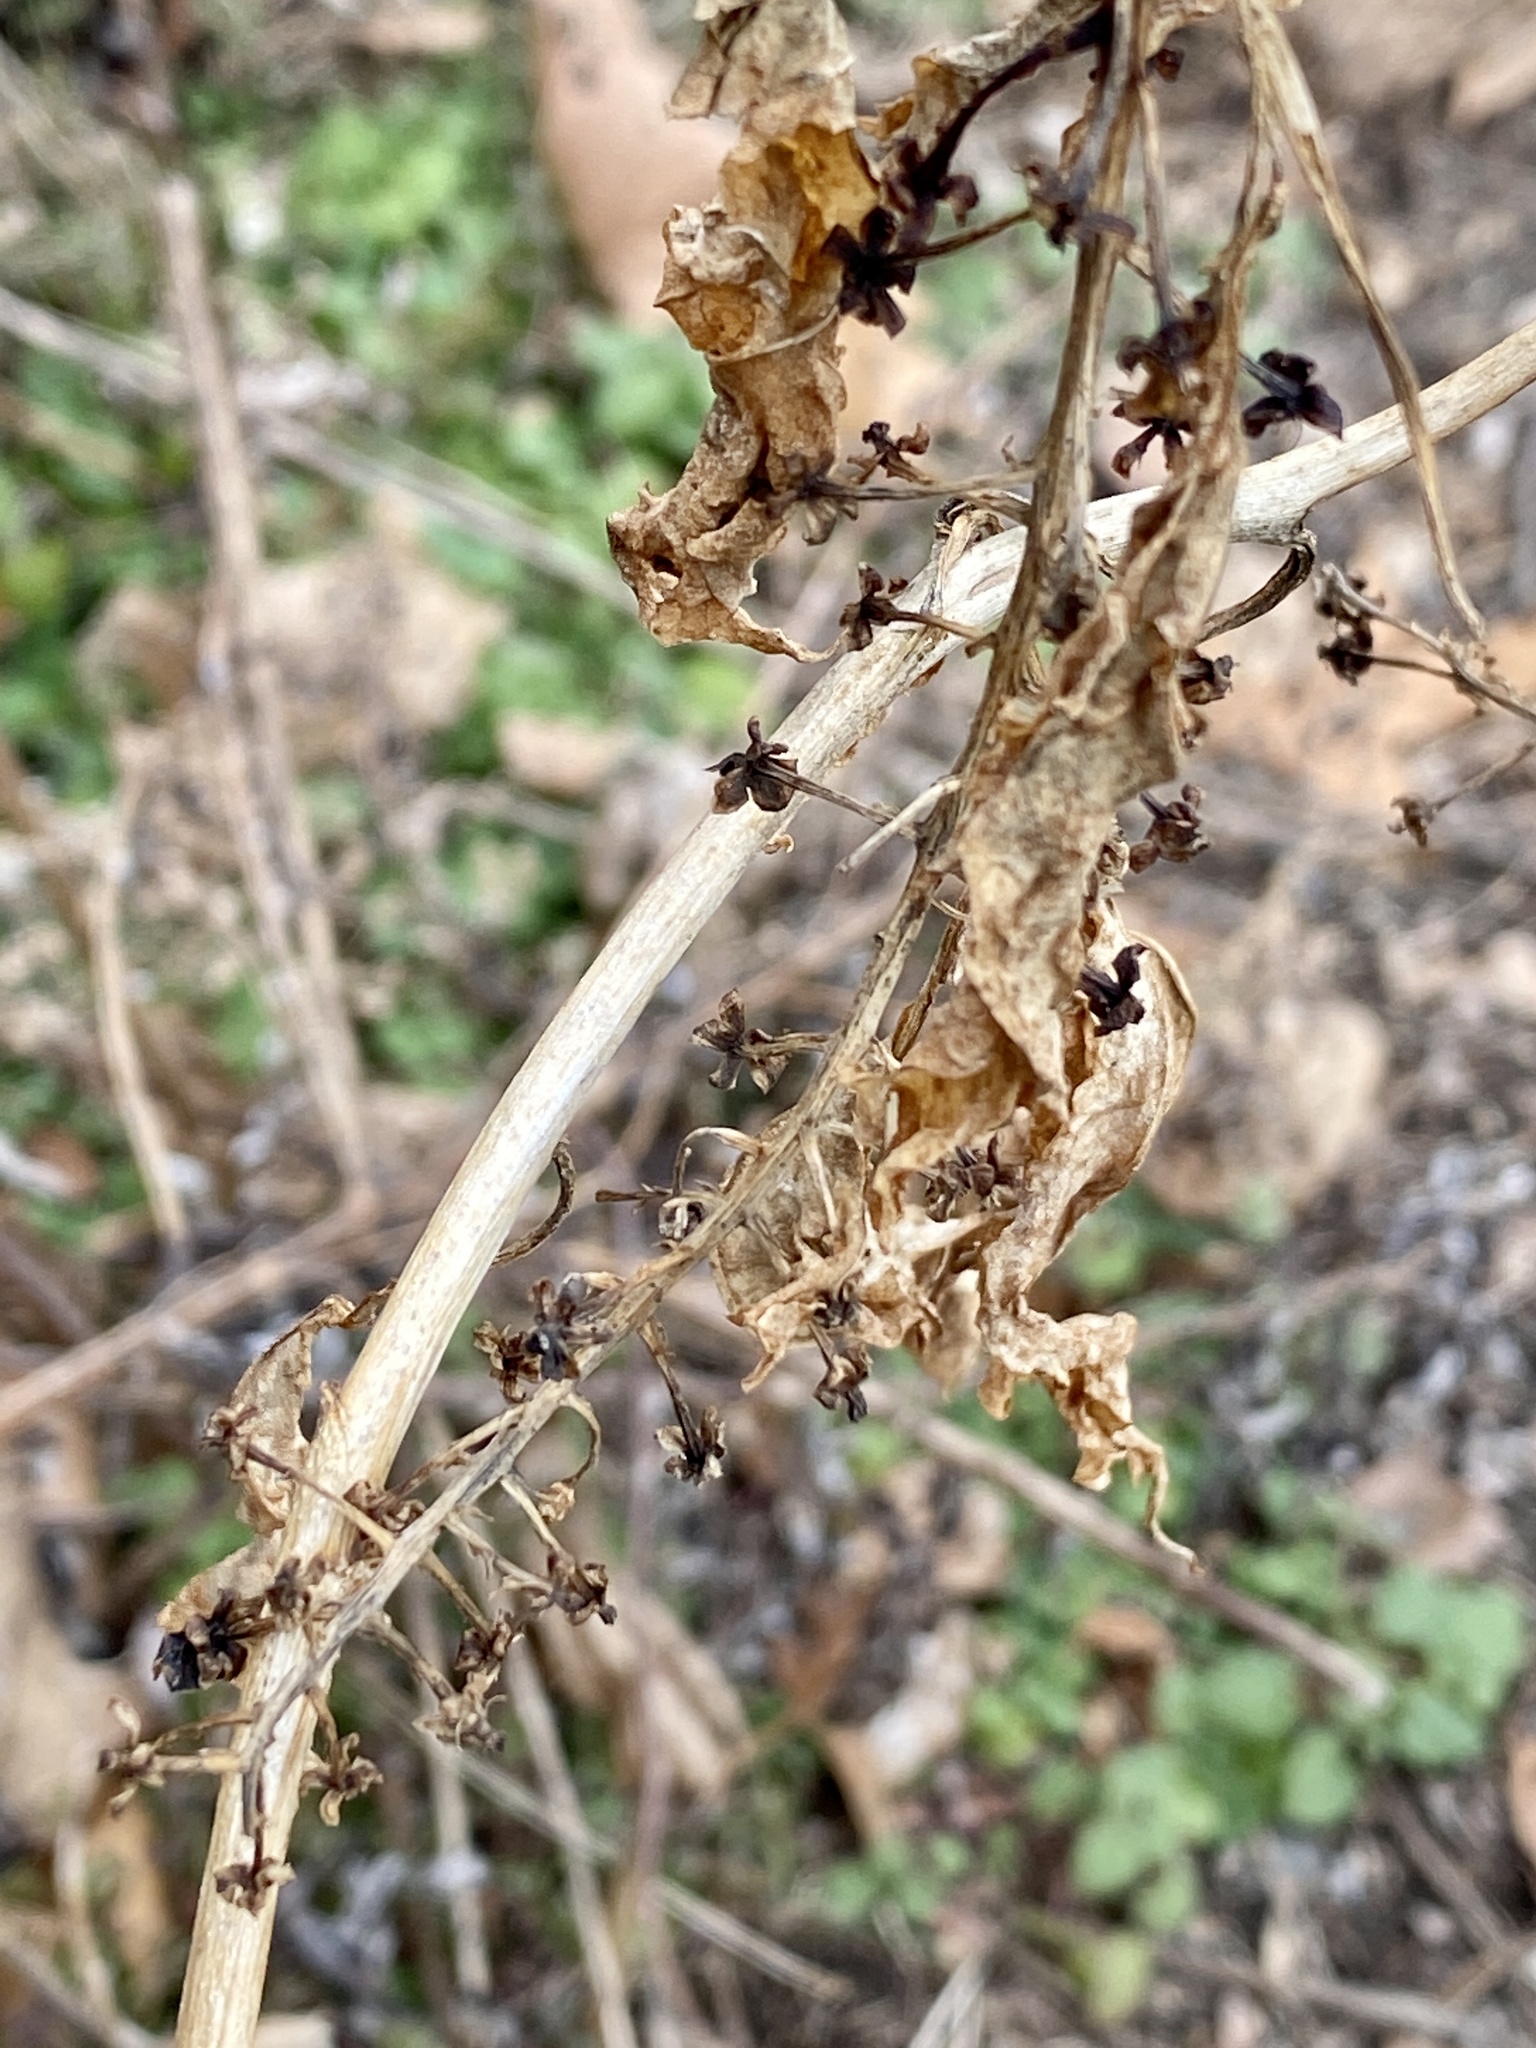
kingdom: Plantae
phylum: Tracheophyta
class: Magnoliopsida
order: Caryophyllales
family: Phytolaccaceae
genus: Phytolacca
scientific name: Phytolacca americana
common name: American pokeweed
